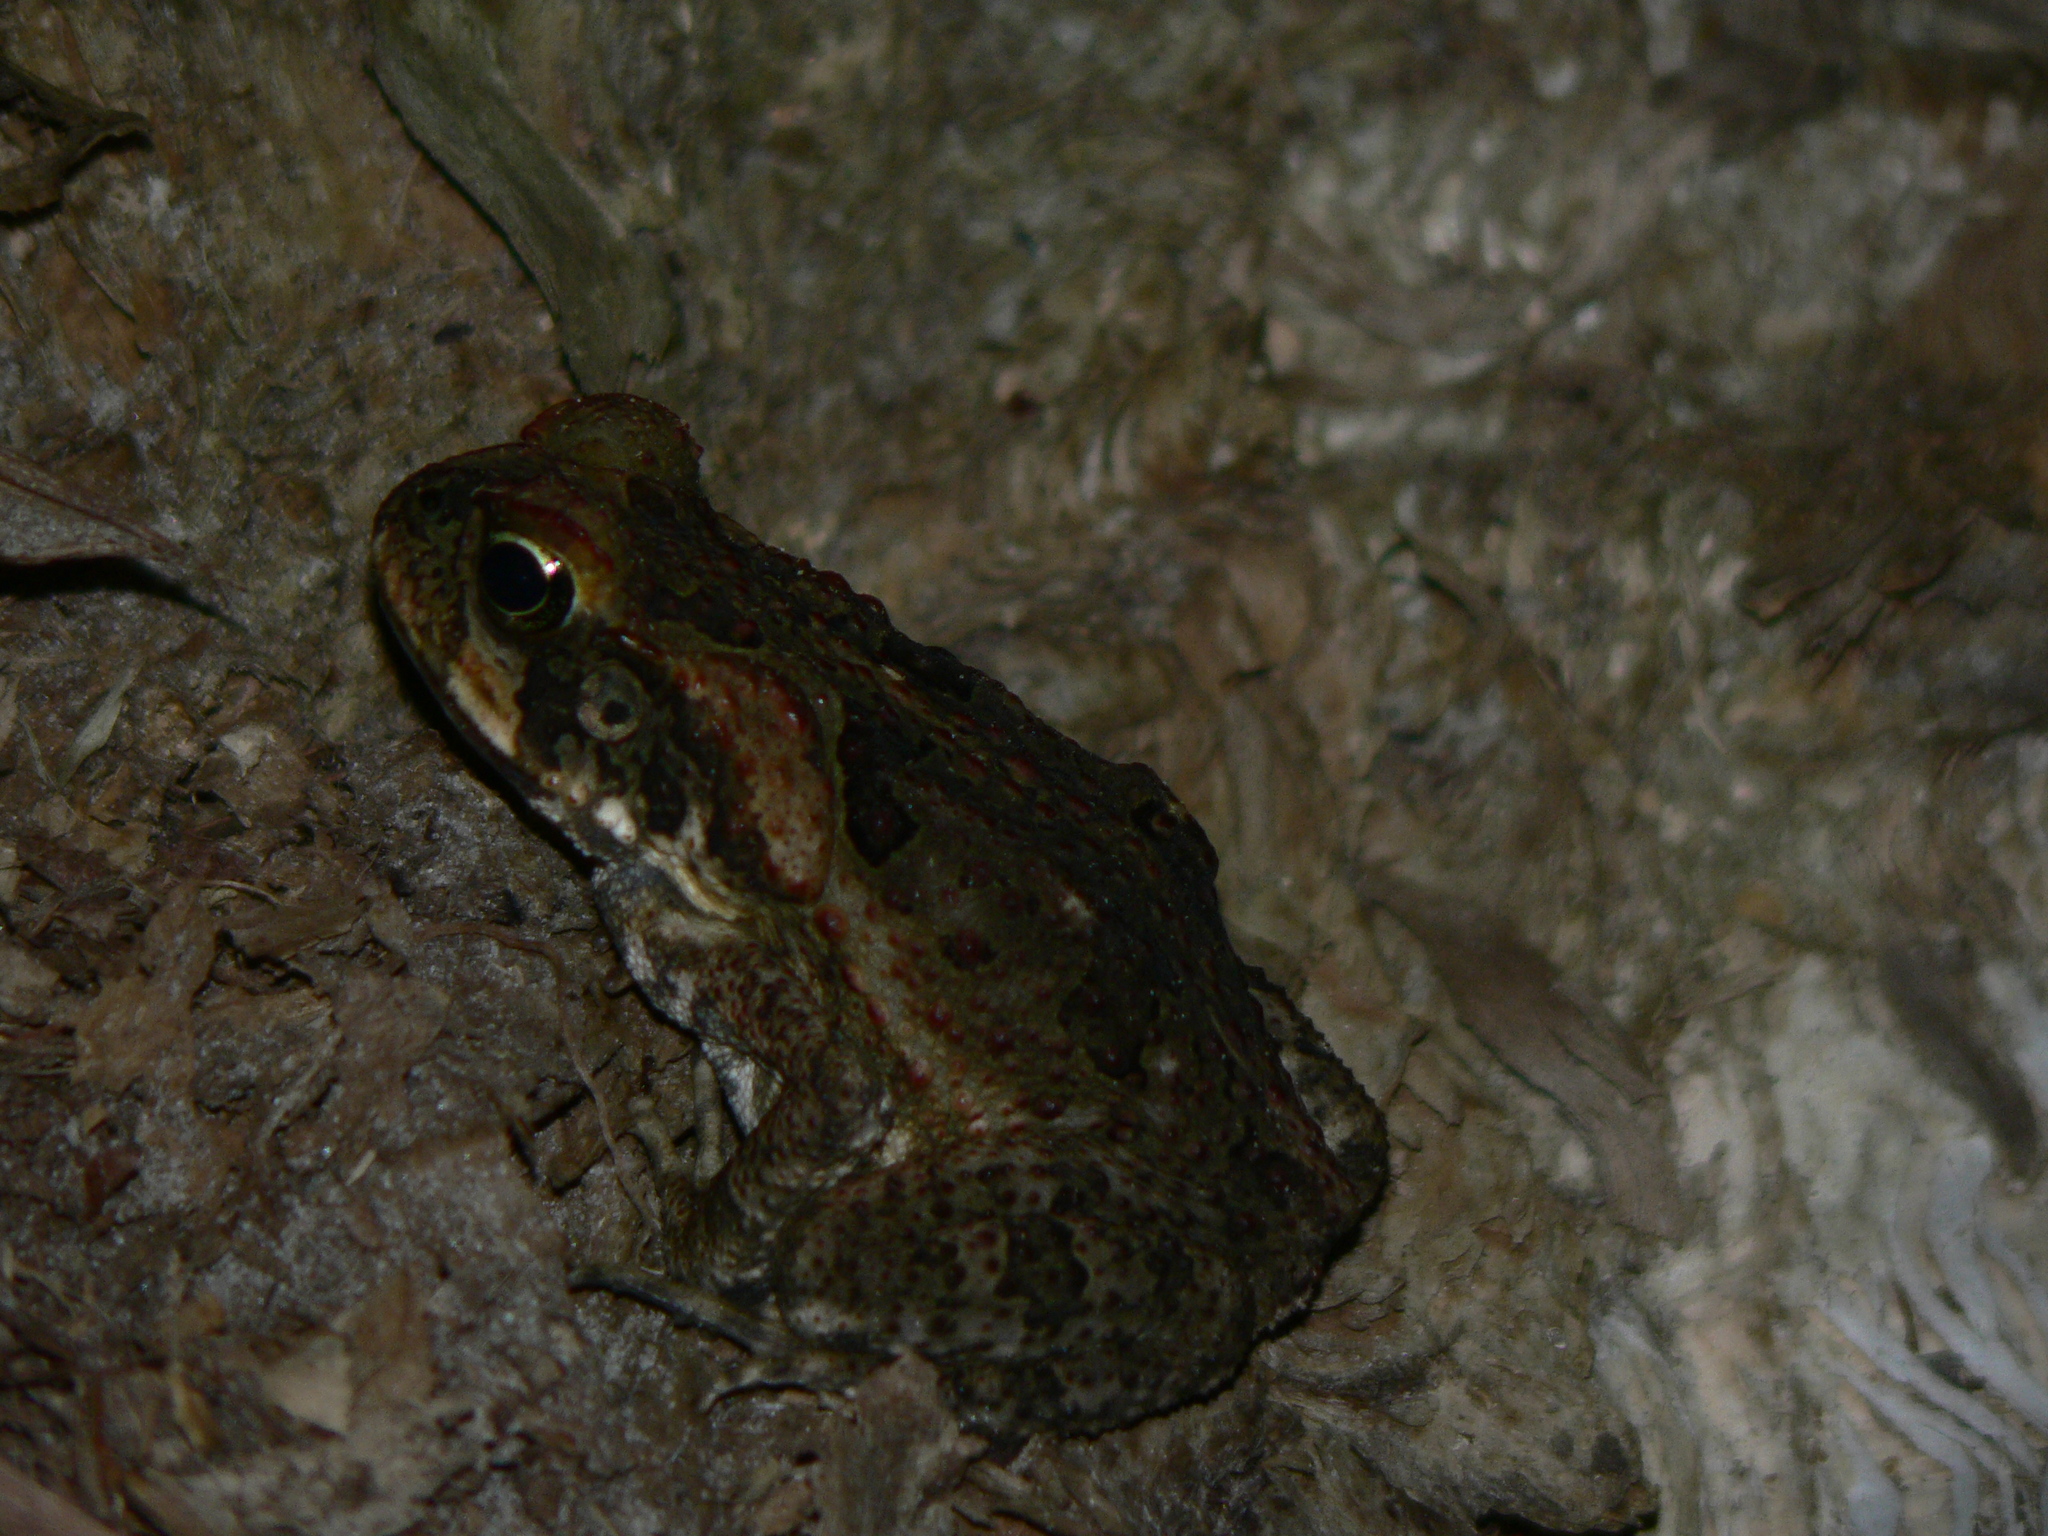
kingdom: Animalia
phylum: Chordata
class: Amphibia
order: Anura
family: Bufonidae
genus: Rhinella
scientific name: Rhinella marina
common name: Cane toad
